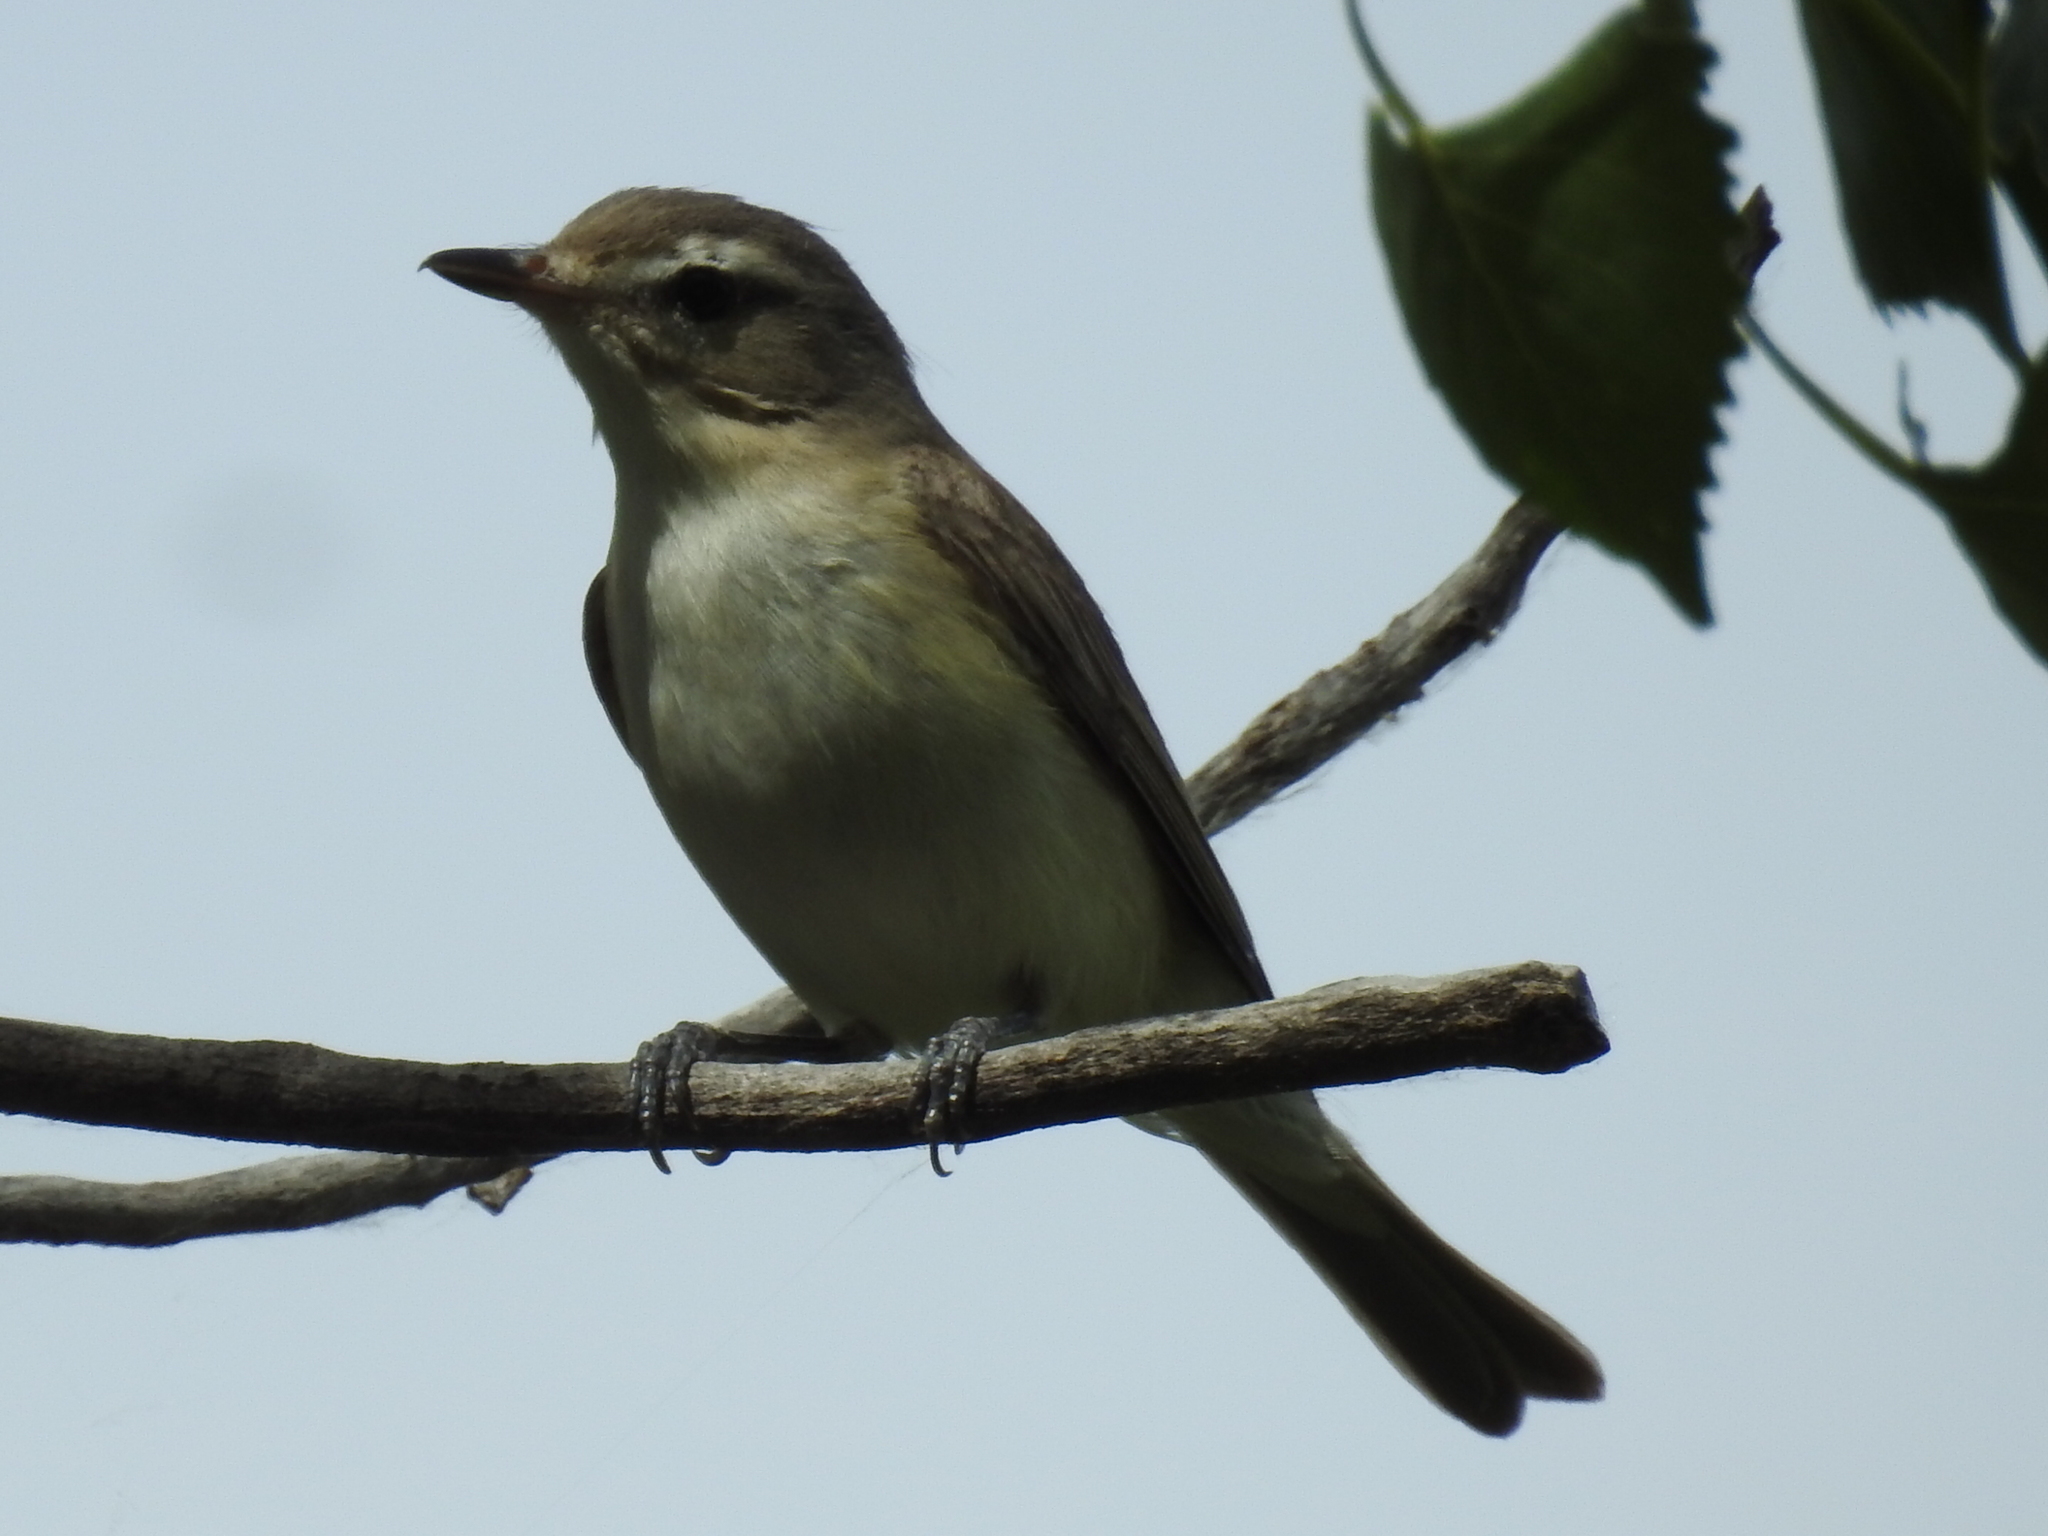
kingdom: Animalia
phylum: Chordata
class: Aves
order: Passeriformes
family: Vireonidae
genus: Vireo
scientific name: Vireo gilvus
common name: Warbling vireo
